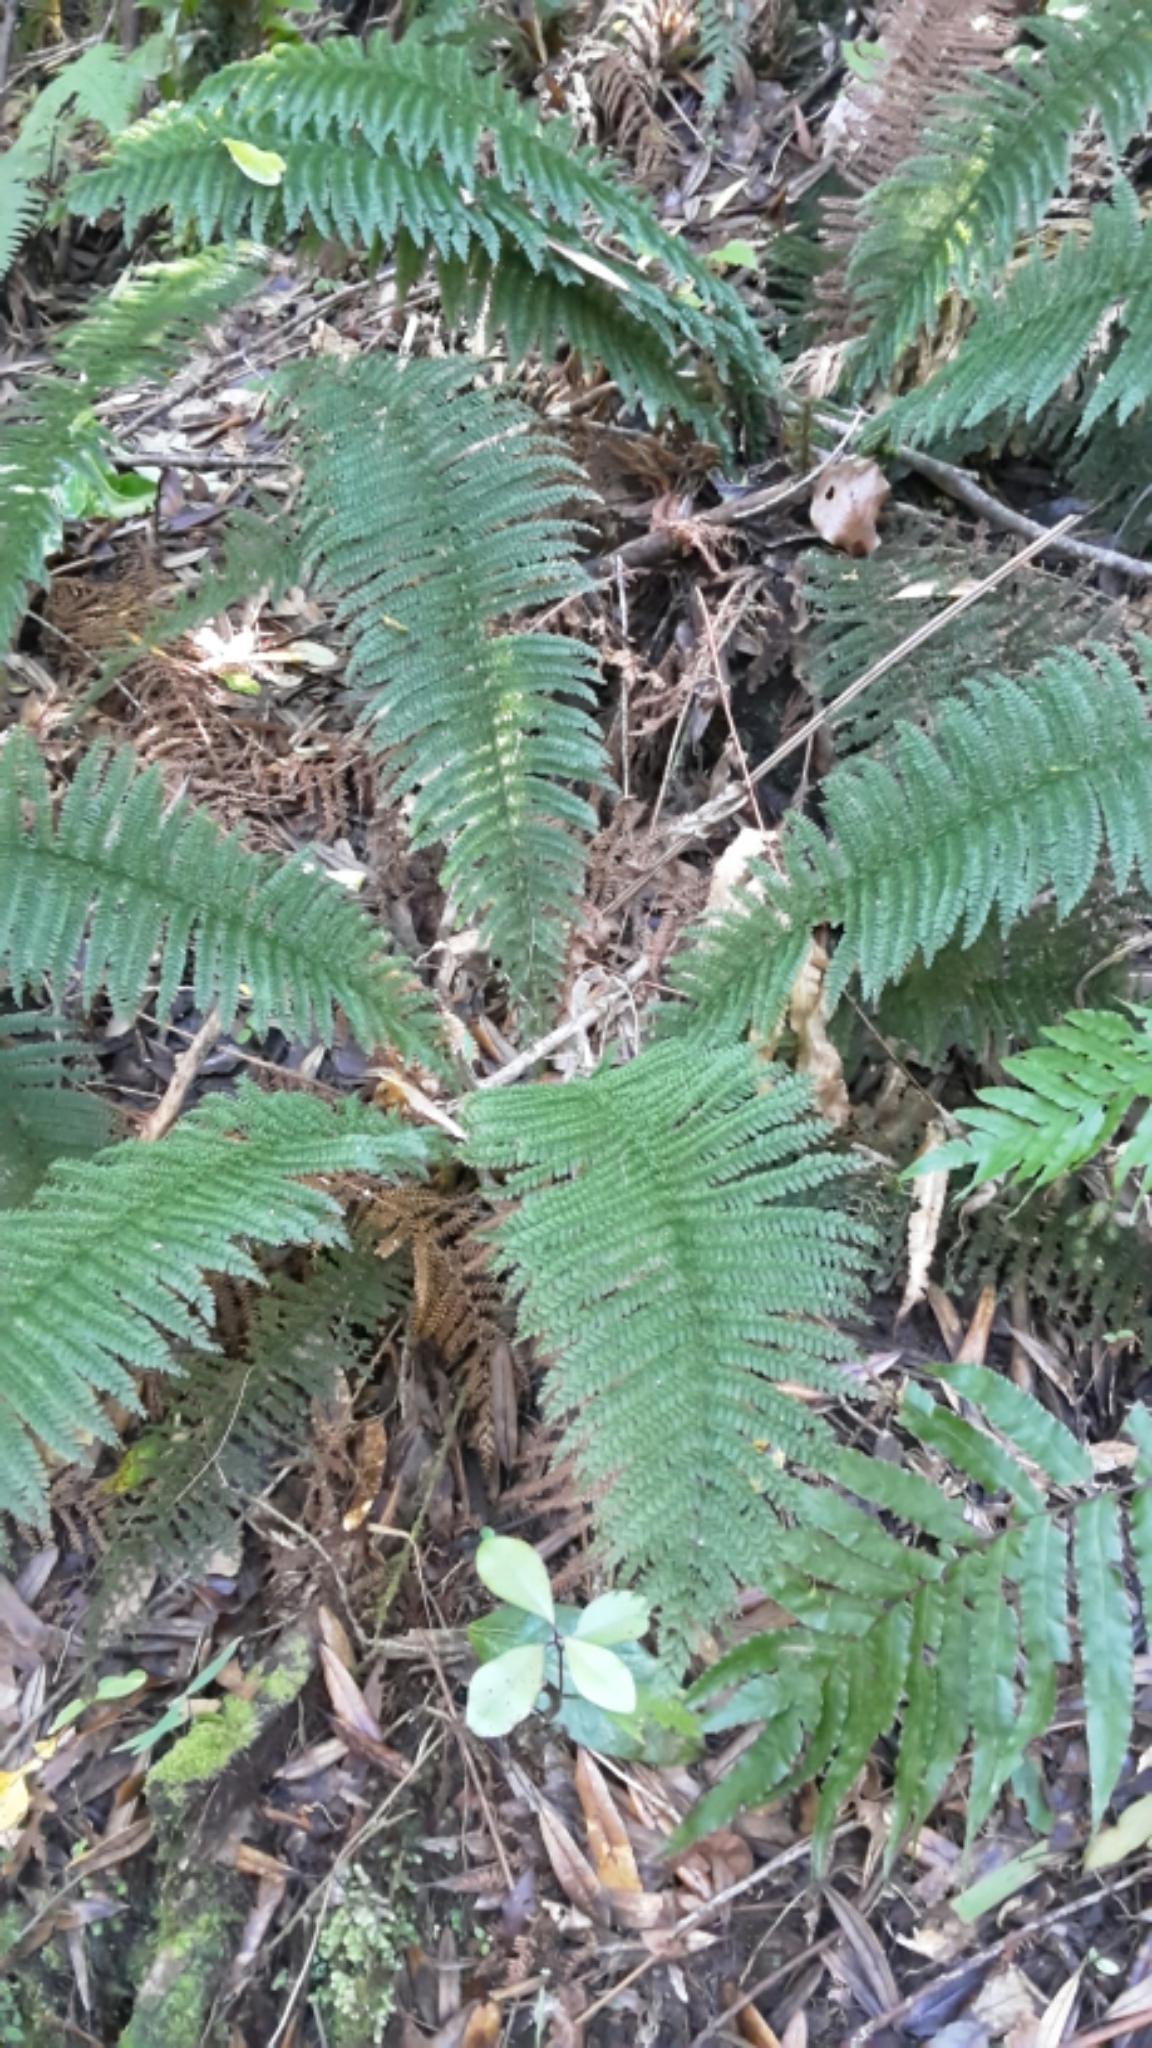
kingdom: Plantae
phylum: Tracheophyta
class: Polypodiopsida
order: Osmundales
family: Osmundaceae
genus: Leptopteris
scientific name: Leptopteris superba
